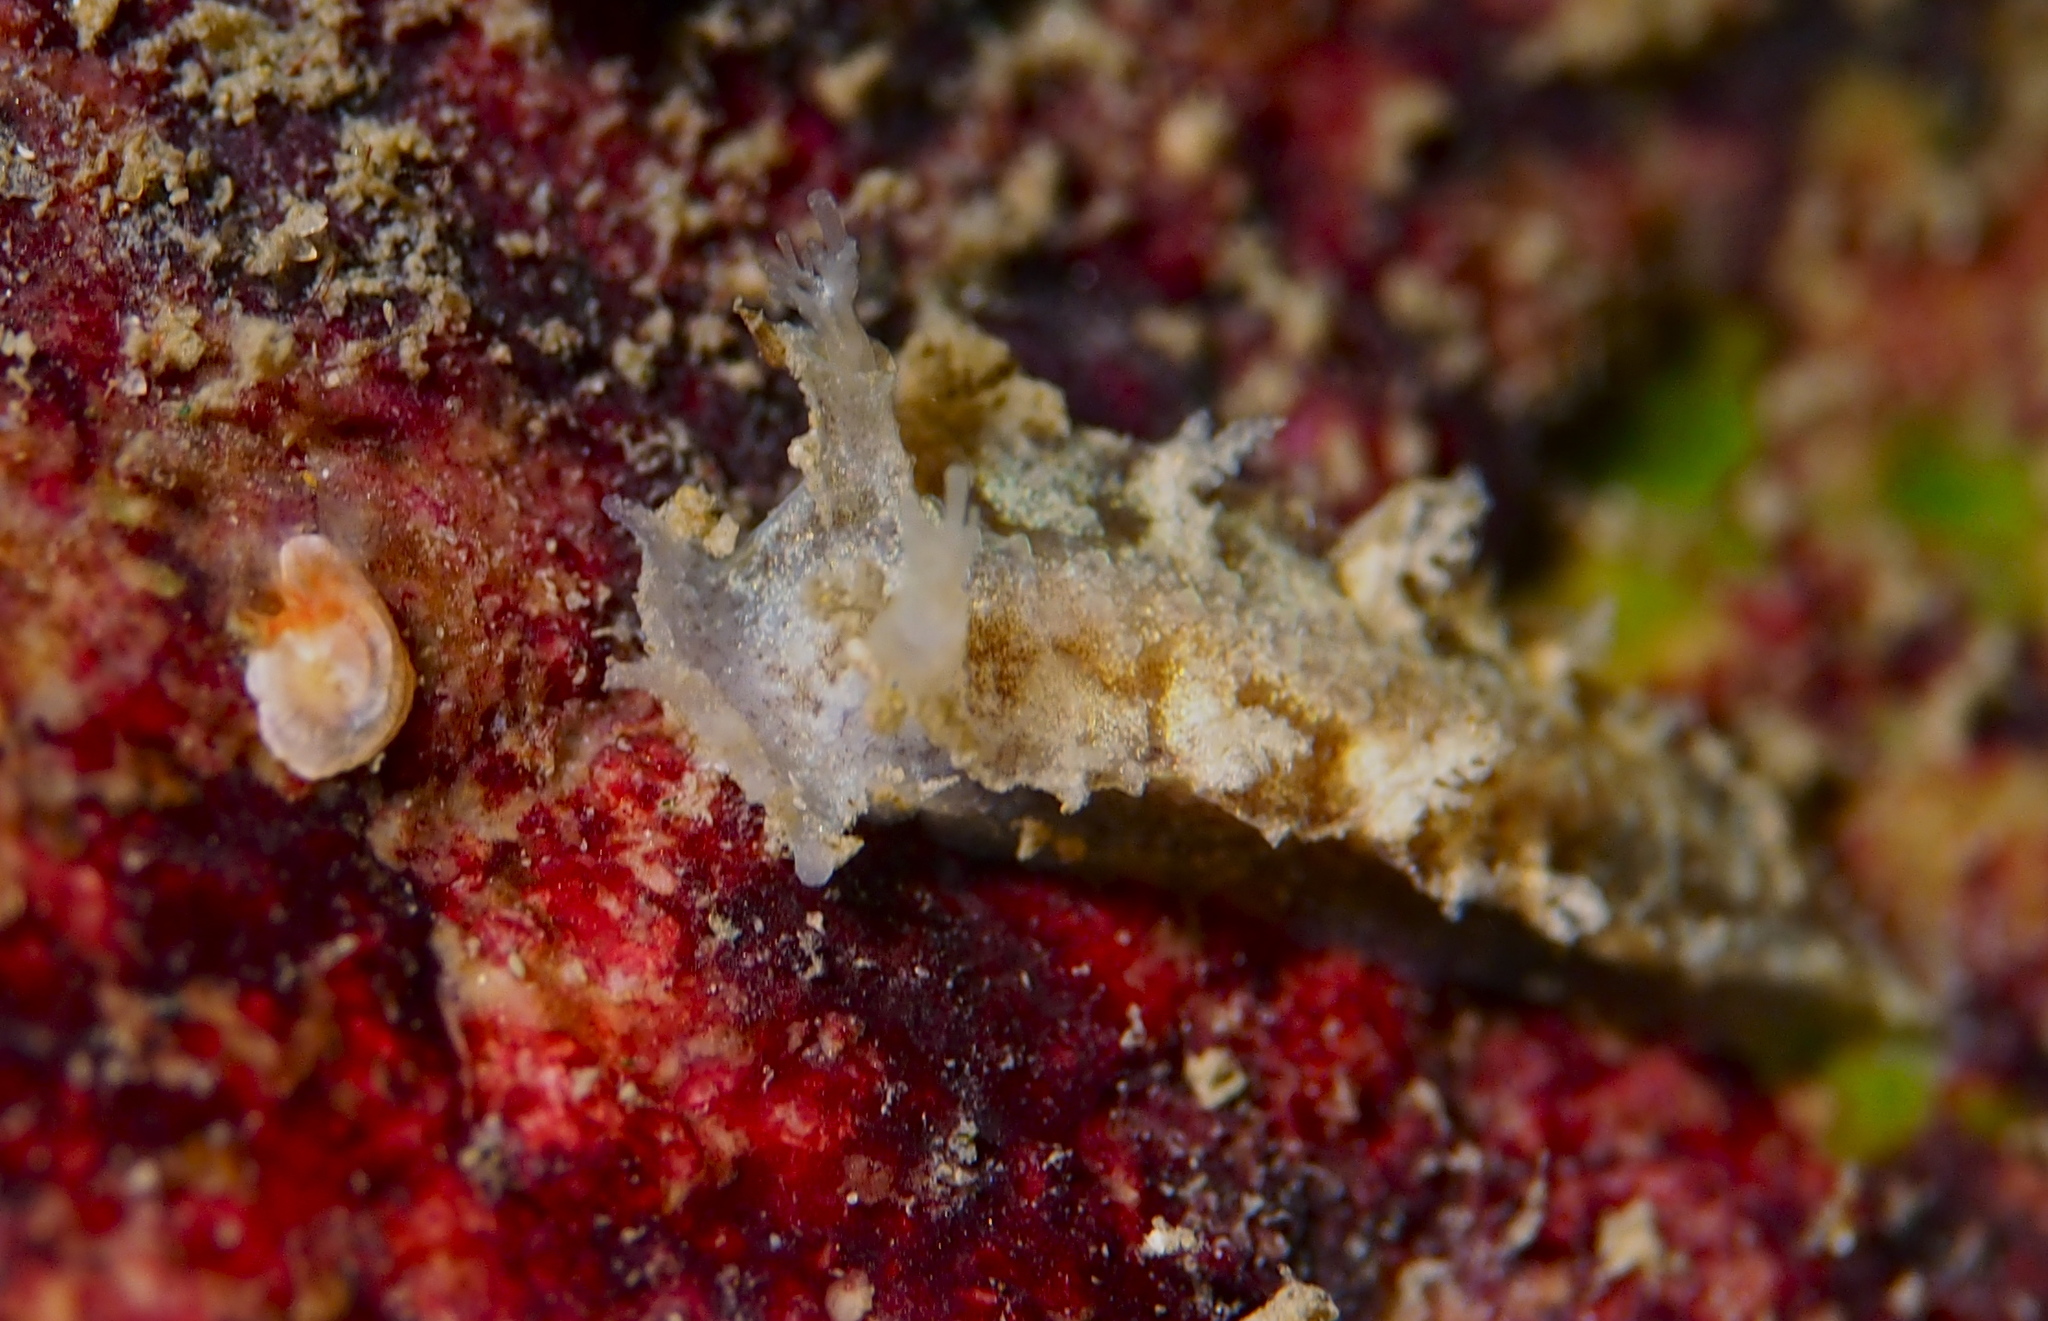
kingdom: Animalia
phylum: Mollusca
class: Gastropoda
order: Nudibranchia
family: Tritoniidae
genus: Duvaucelia
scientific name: Duvaucelia plebeia
